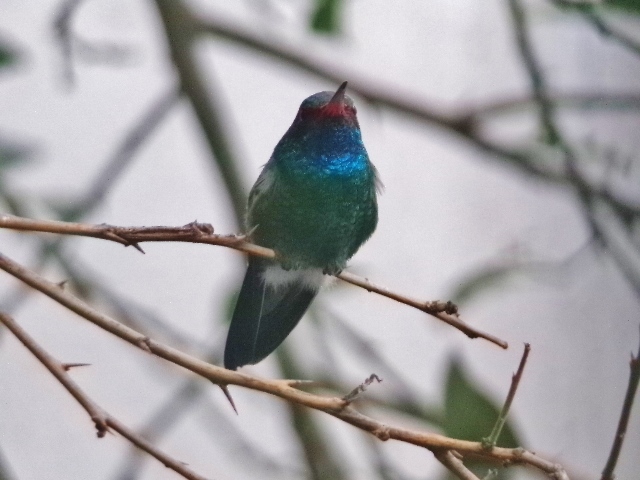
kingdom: Animalia
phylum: Chordata
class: Aves
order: Apodiformes
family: Trochilidae
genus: Cynanthus
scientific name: Cynanthus latirostris
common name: Broad-billed hummingbird
